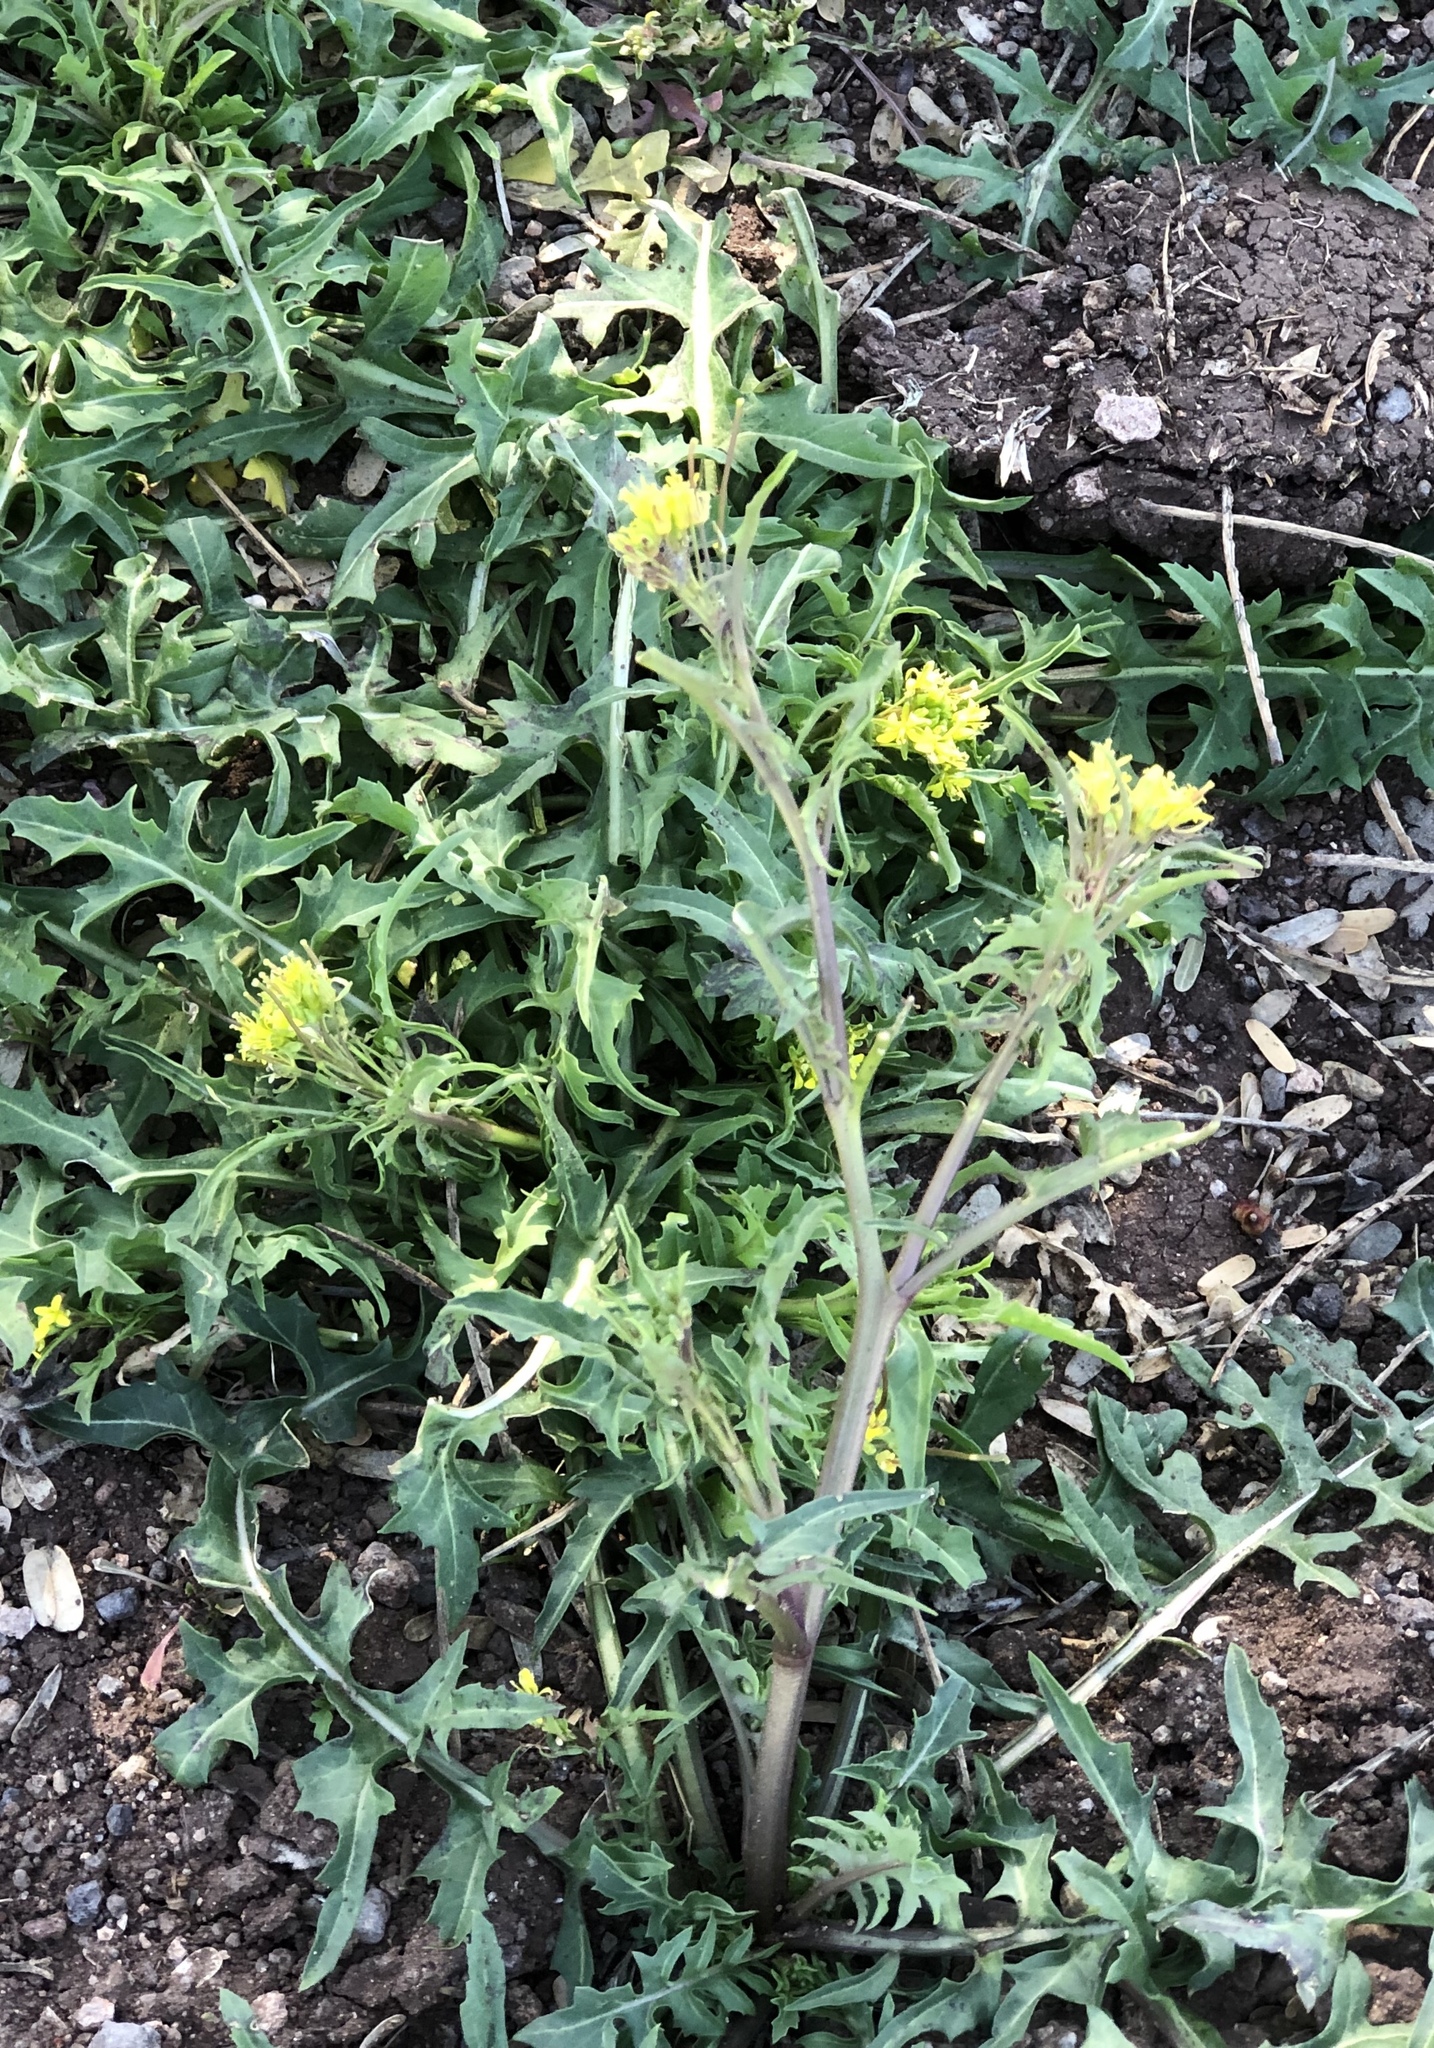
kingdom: Plantae
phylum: Tracheophyta
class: Magnoliopsida
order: Brassicales
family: Brassicaceae
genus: Sisymbrium
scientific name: Sisymbrium irio
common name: London rocket
